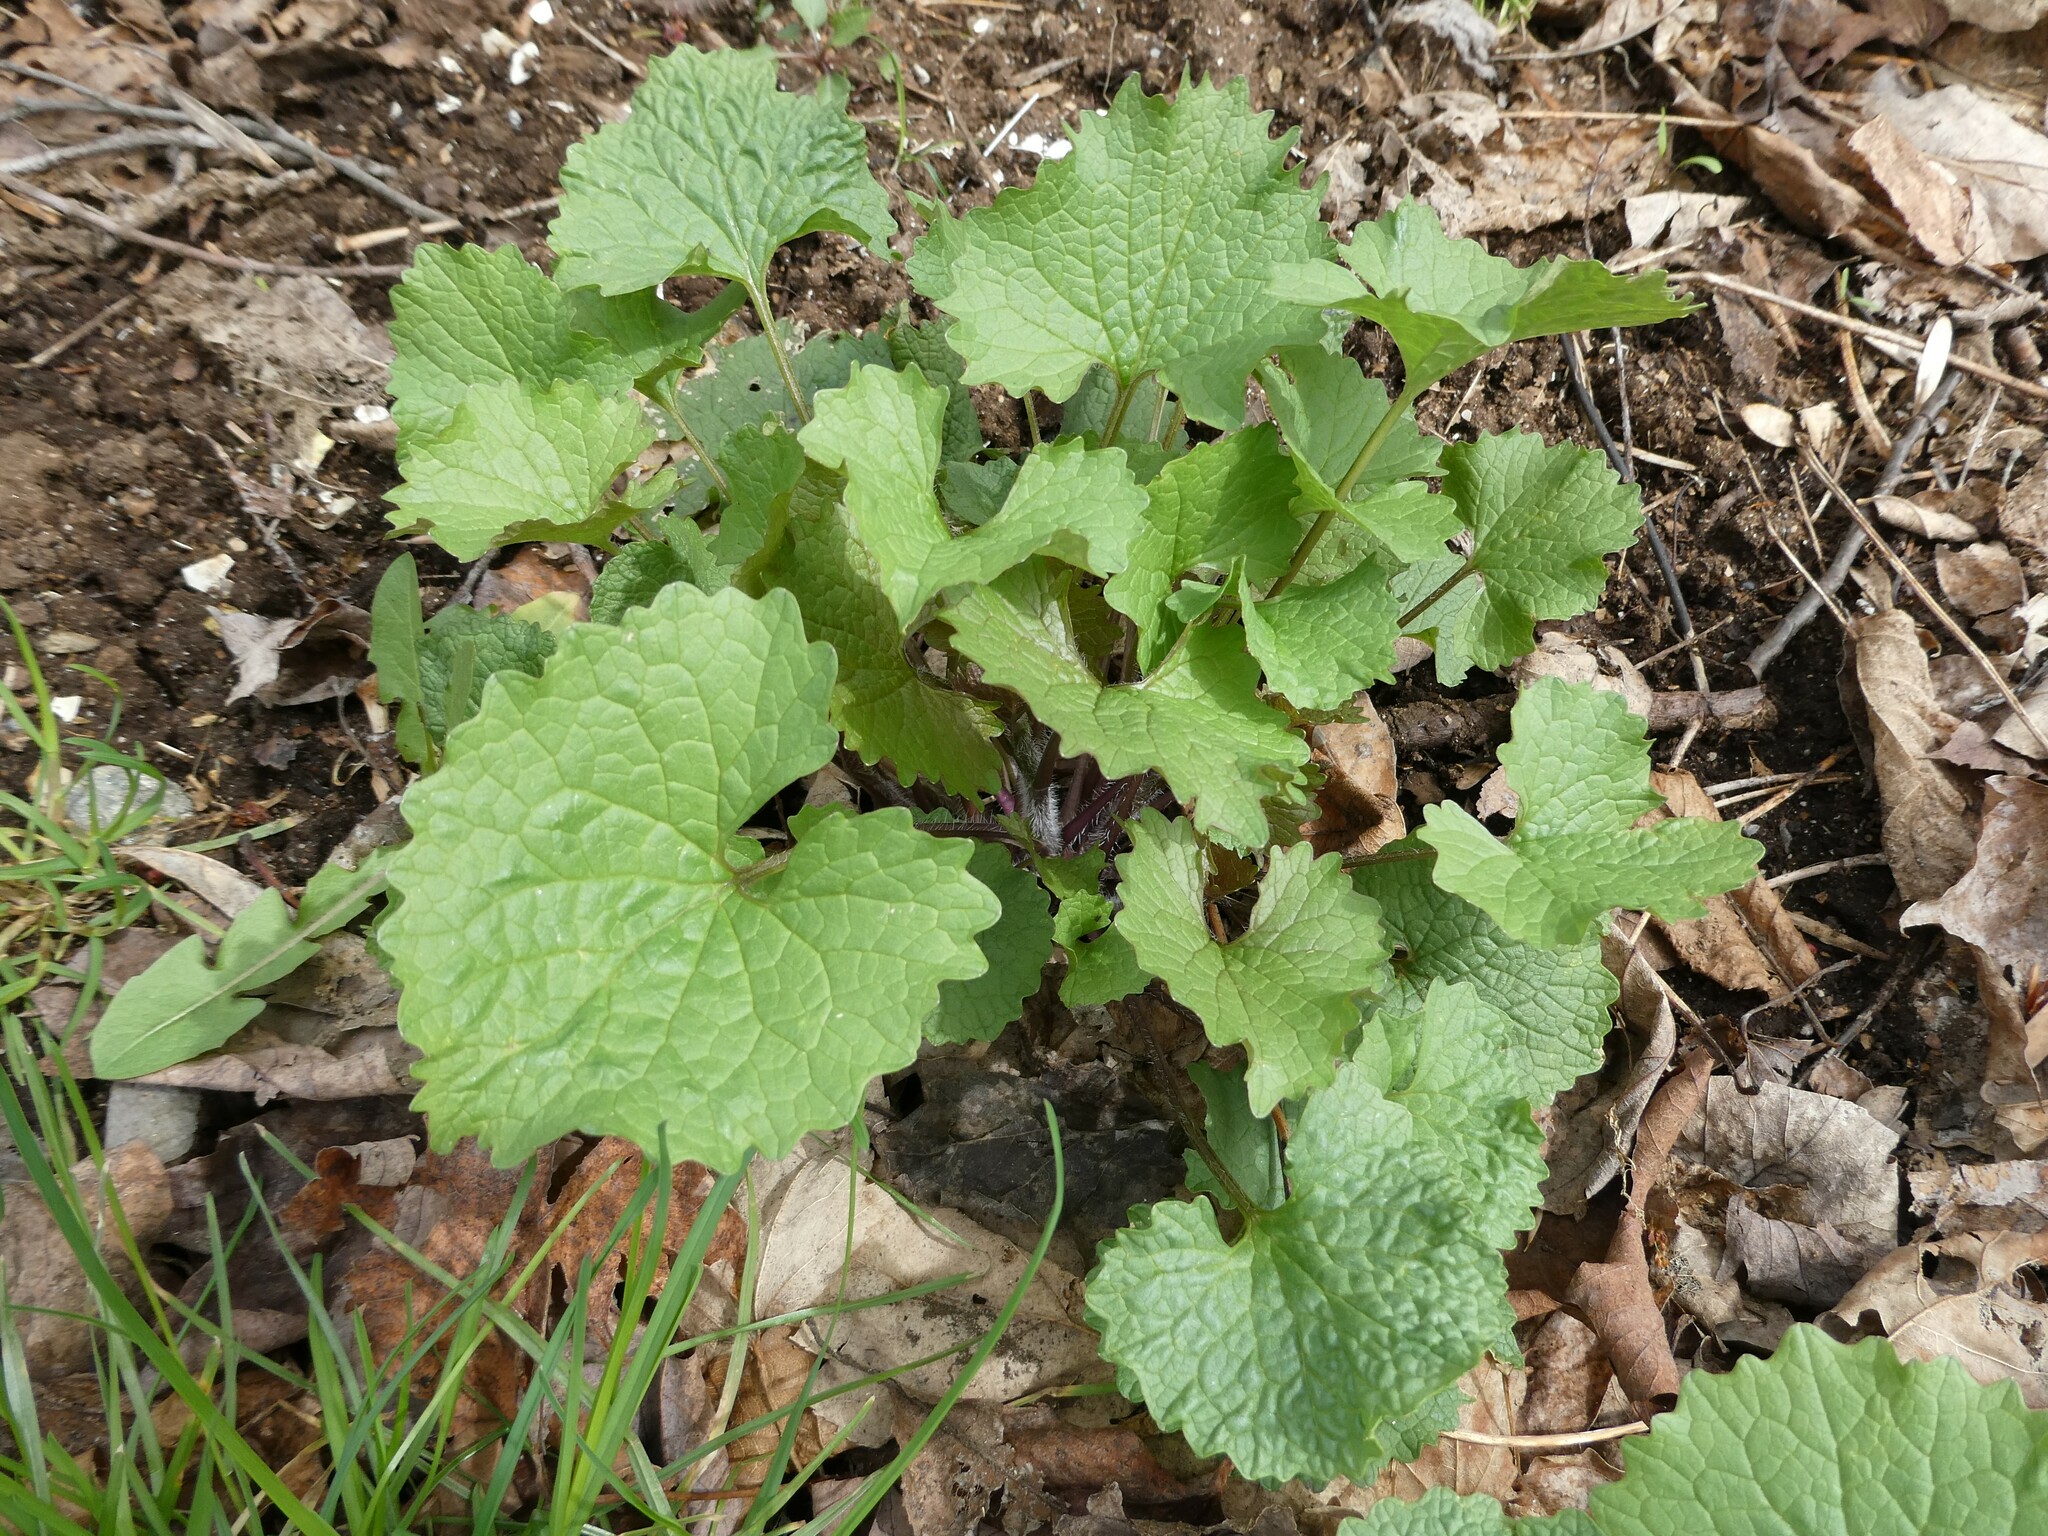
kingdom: Plantae
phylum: Tracheophyta
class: Magnoliopsida
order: Brassicales
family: Brassicaceae
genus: Alliaria
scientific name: Alliaria petiolata
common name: Garlic mustard
